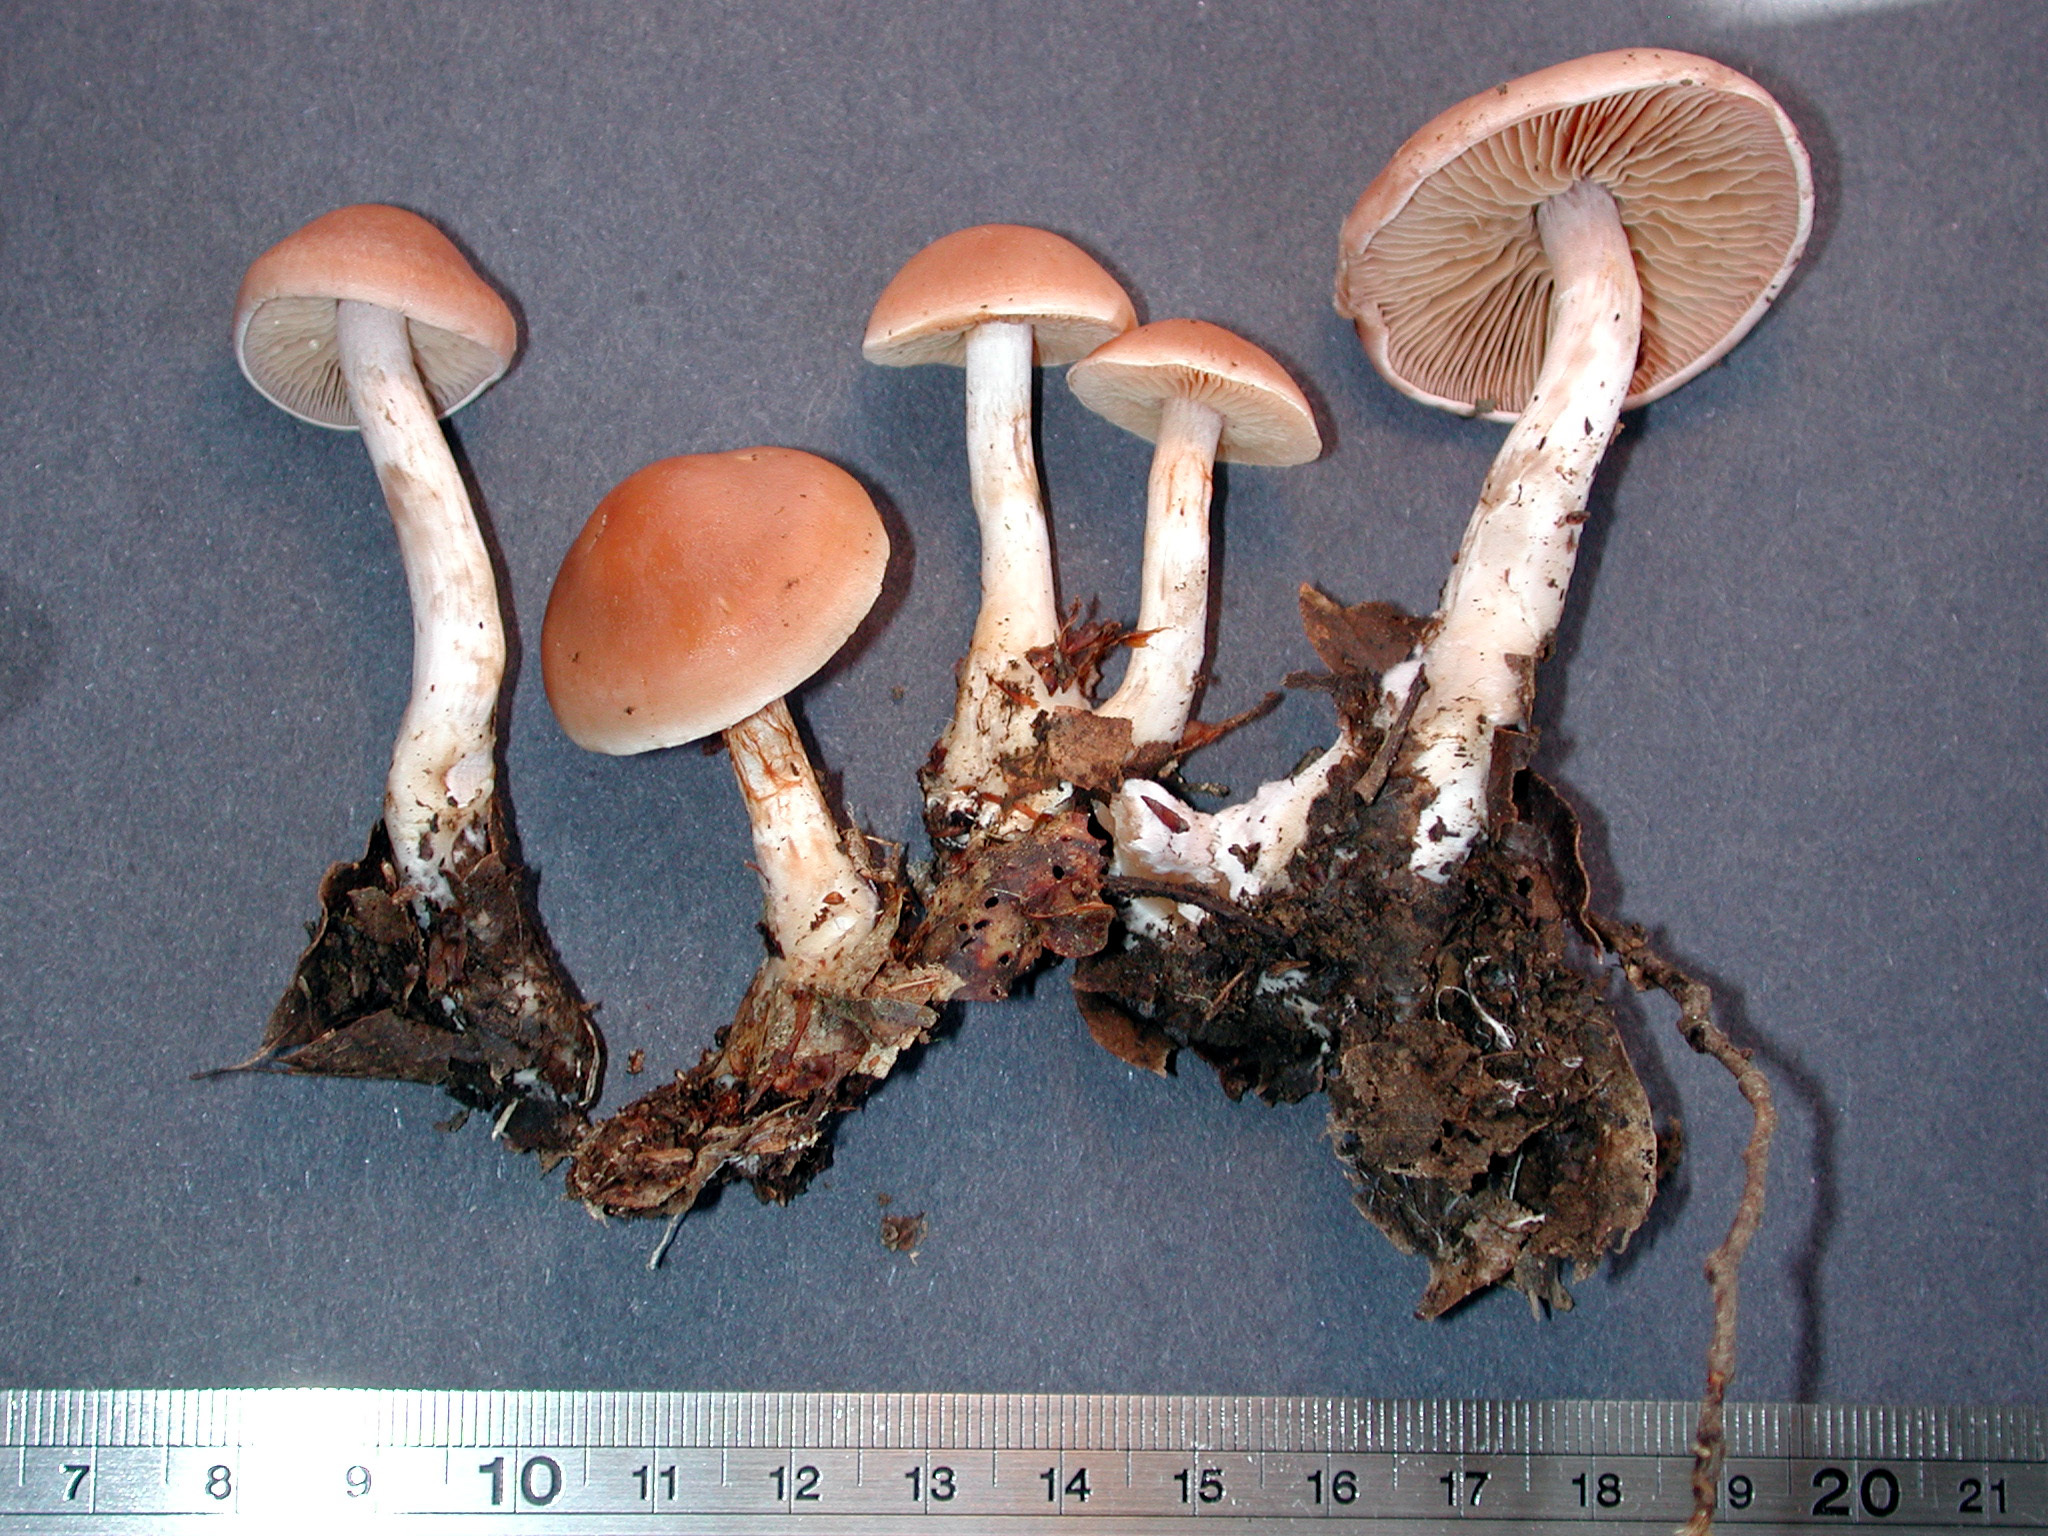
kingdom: Fungi
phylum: Basidiomycota
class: Agaricomycetes
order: Agaricales
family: Cortinariaceae
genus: Cortinarius
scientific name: Cortinarius paraoniti
